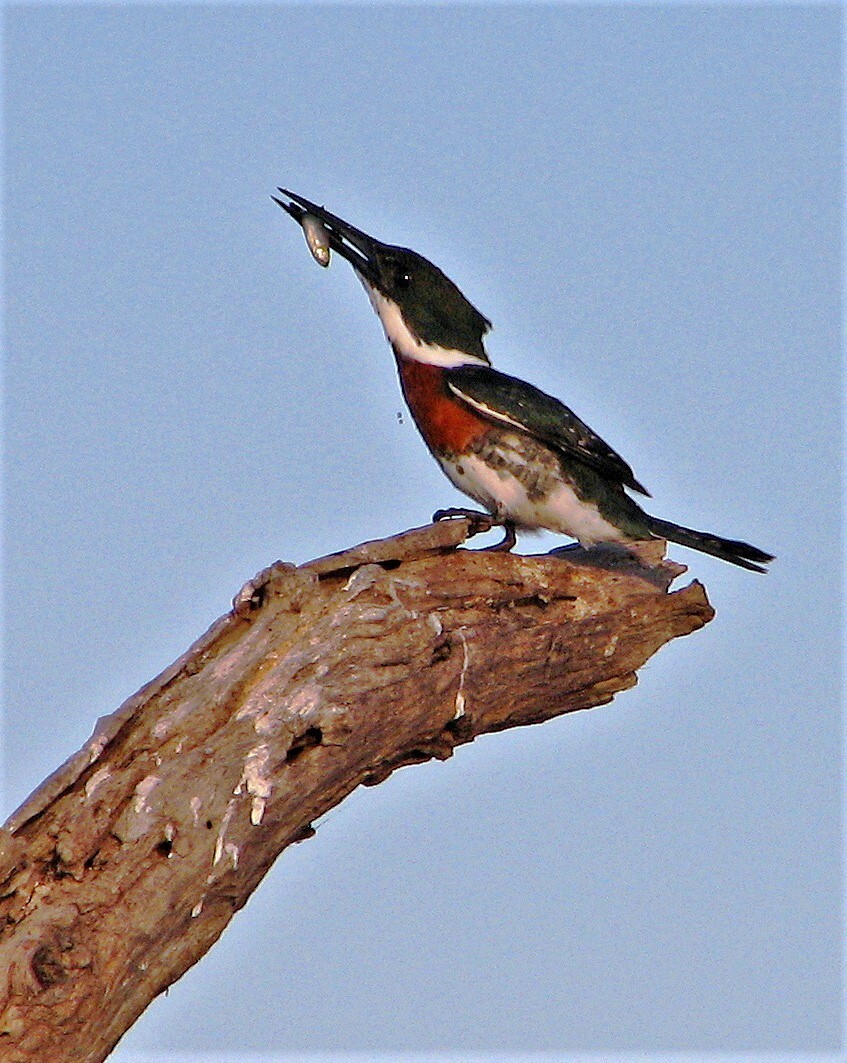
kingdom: Animalia
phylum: Chordata
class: Aves
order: Coraciiformes
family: Alcedinidae
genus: Chloroceryle
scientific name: Chloroceryle americana
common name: Green kingfisher
